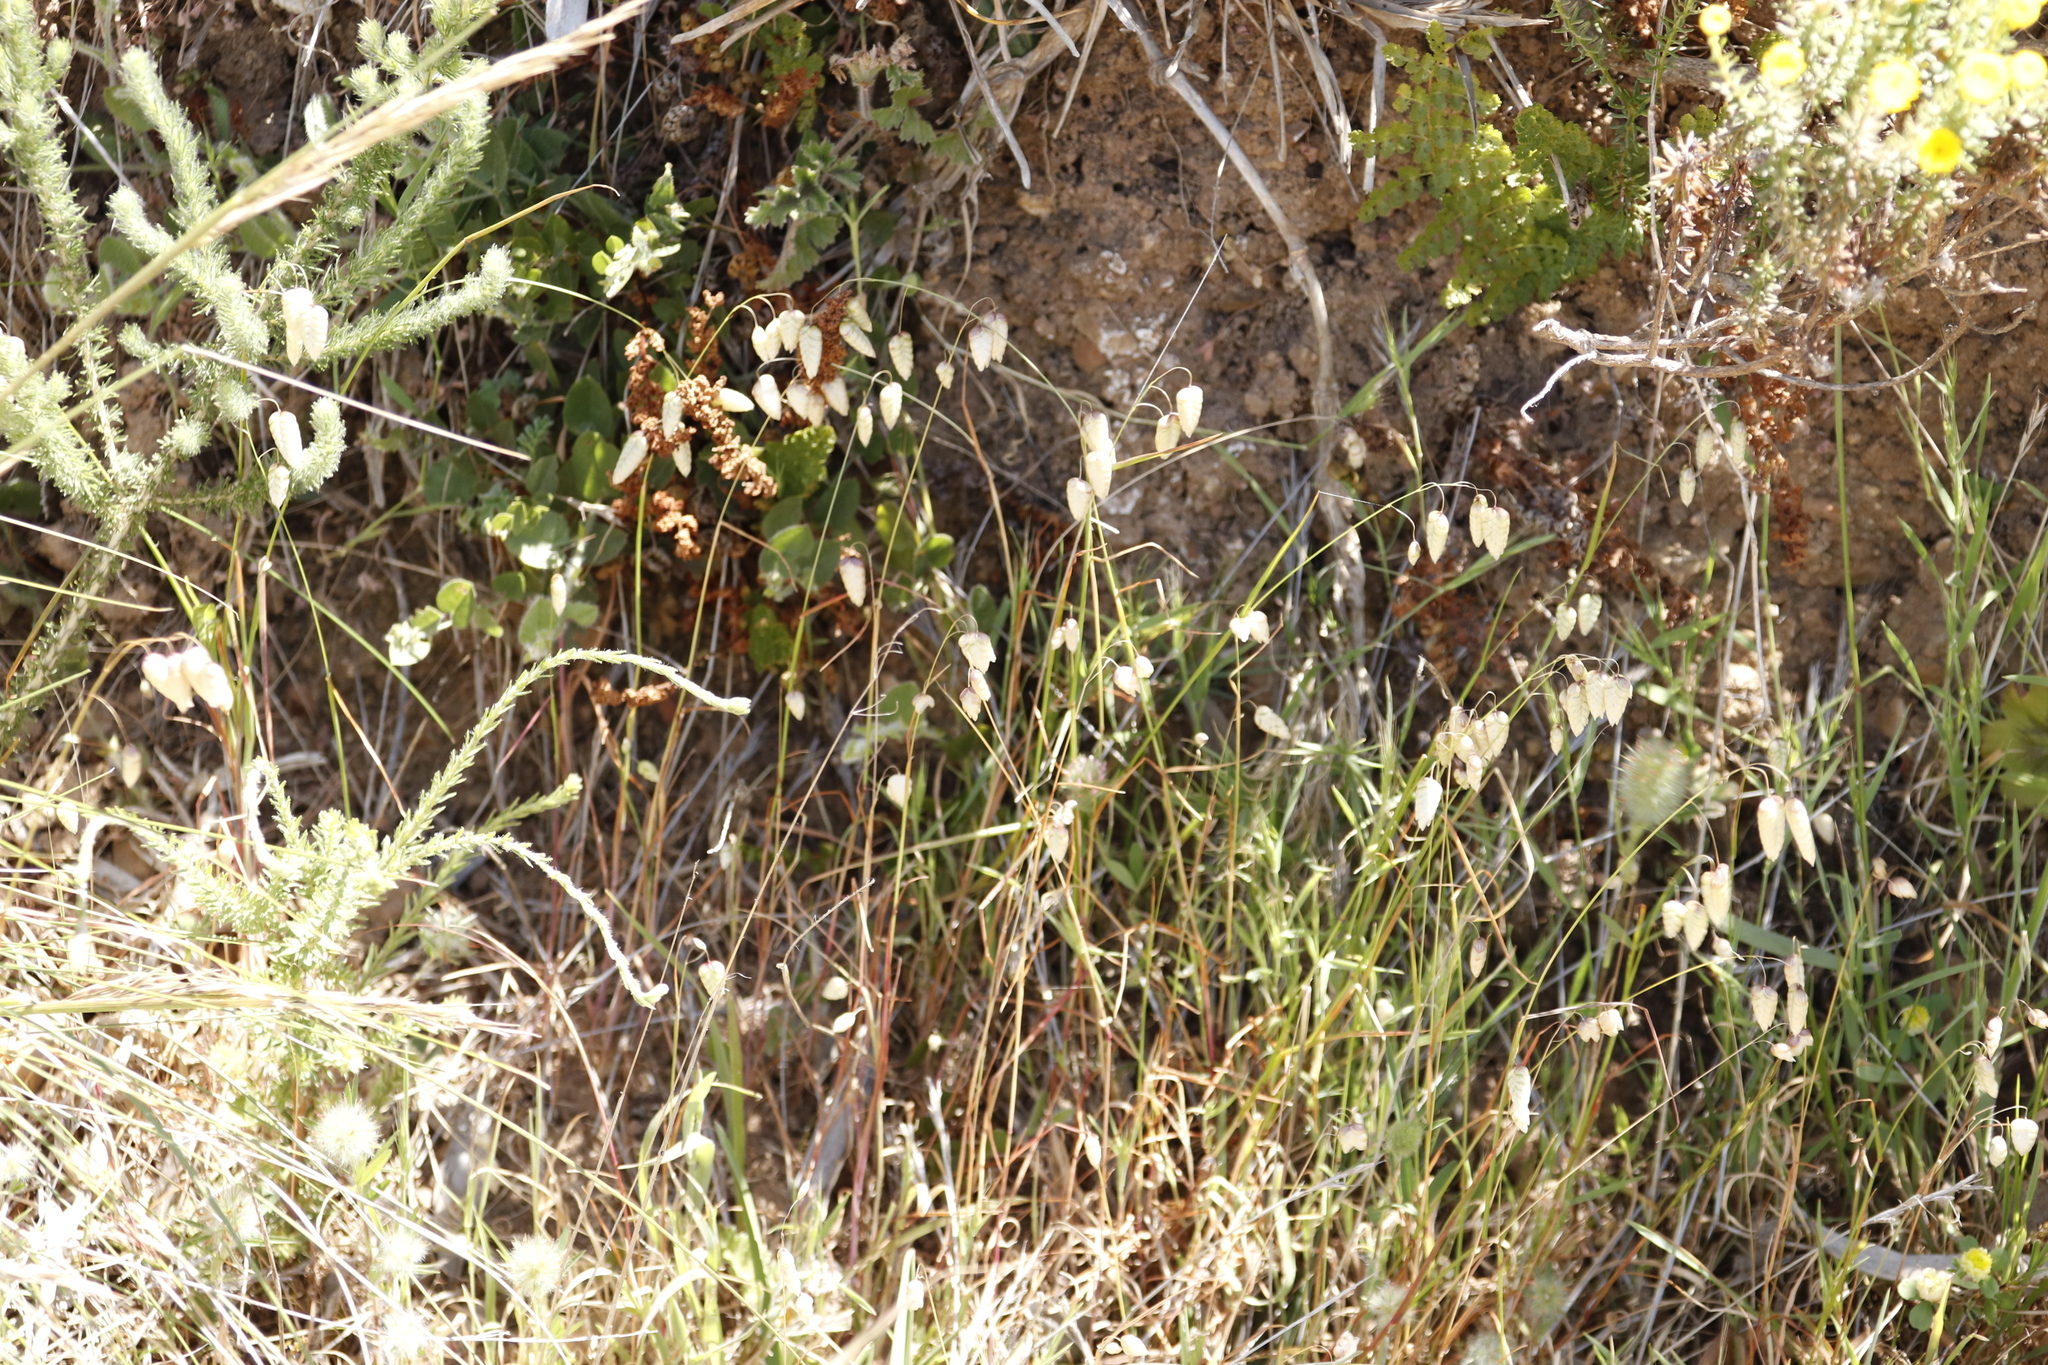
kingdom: Plantae
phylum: Tracheophyta
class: Liliopsida
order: Poales
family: Poaceae
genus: Briza
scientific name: Briza maxima
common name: Big quakinggrass
